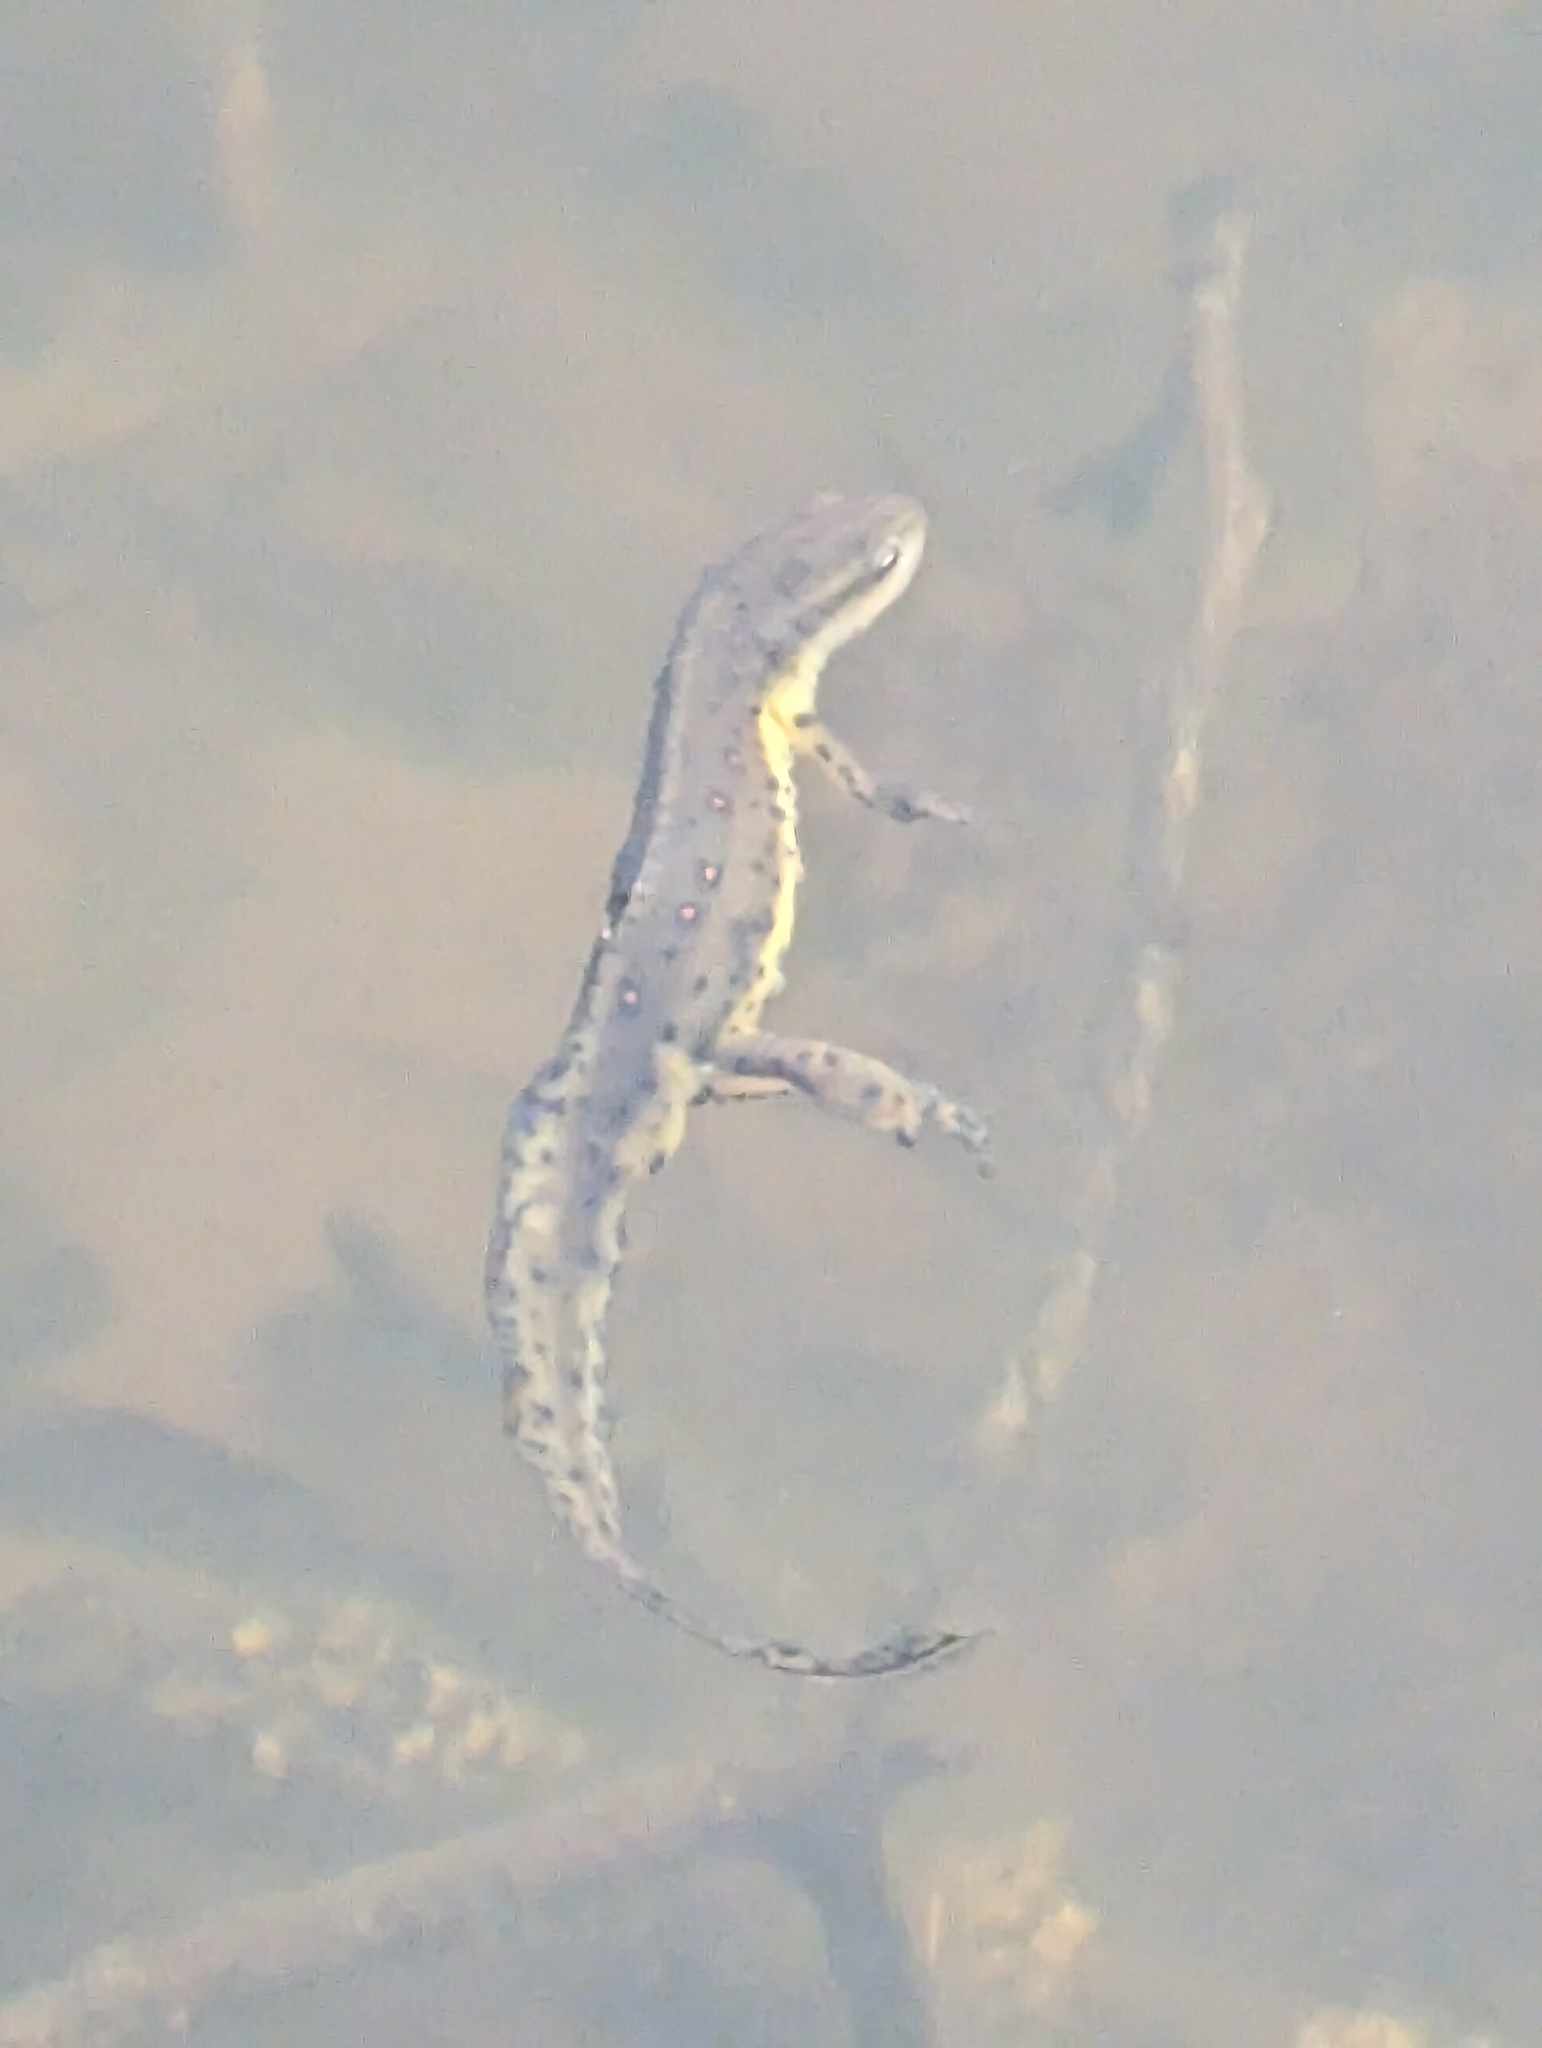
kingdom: Animalia
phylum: Chordata
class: Amphibia
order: Caudata
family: Salamandridae
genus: Notophthalmus
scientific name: Notophthalmus viridescens
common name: Eastern newt
